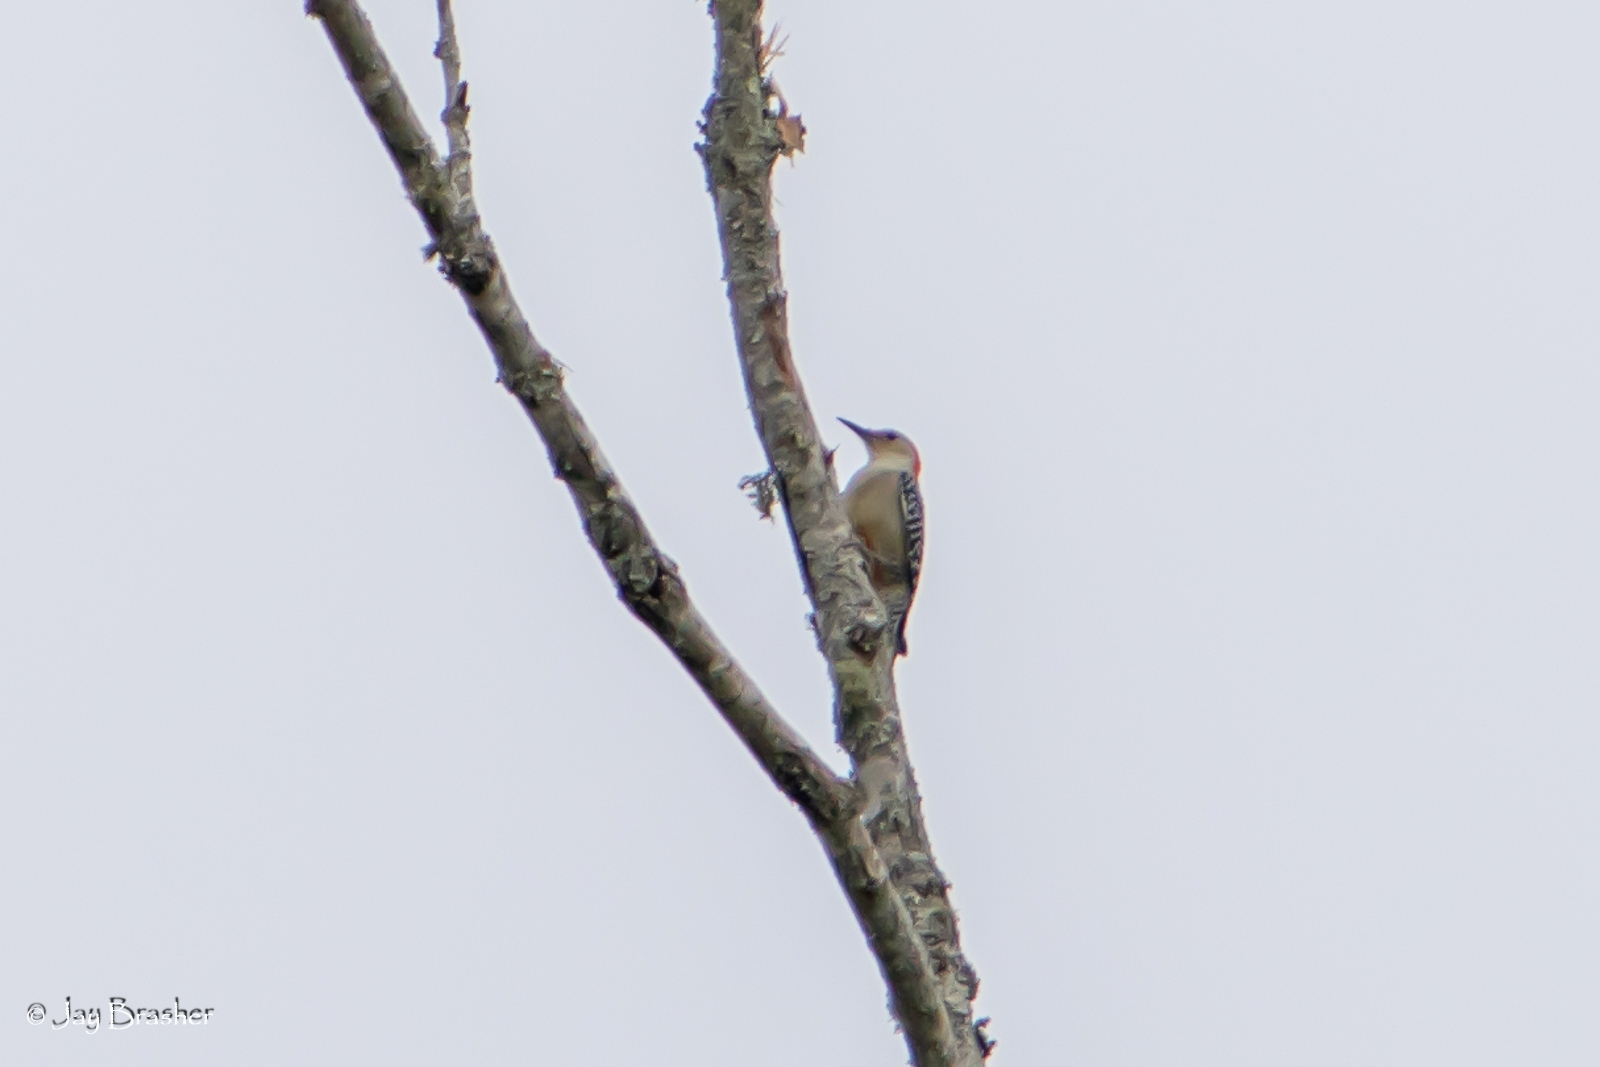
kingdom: Animalia
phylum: Chordata
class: Aves
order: Piciformes
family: Picidae
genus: Melanerpes
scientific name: Melanerpes carolinus
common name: Red-bellied woodpecker
